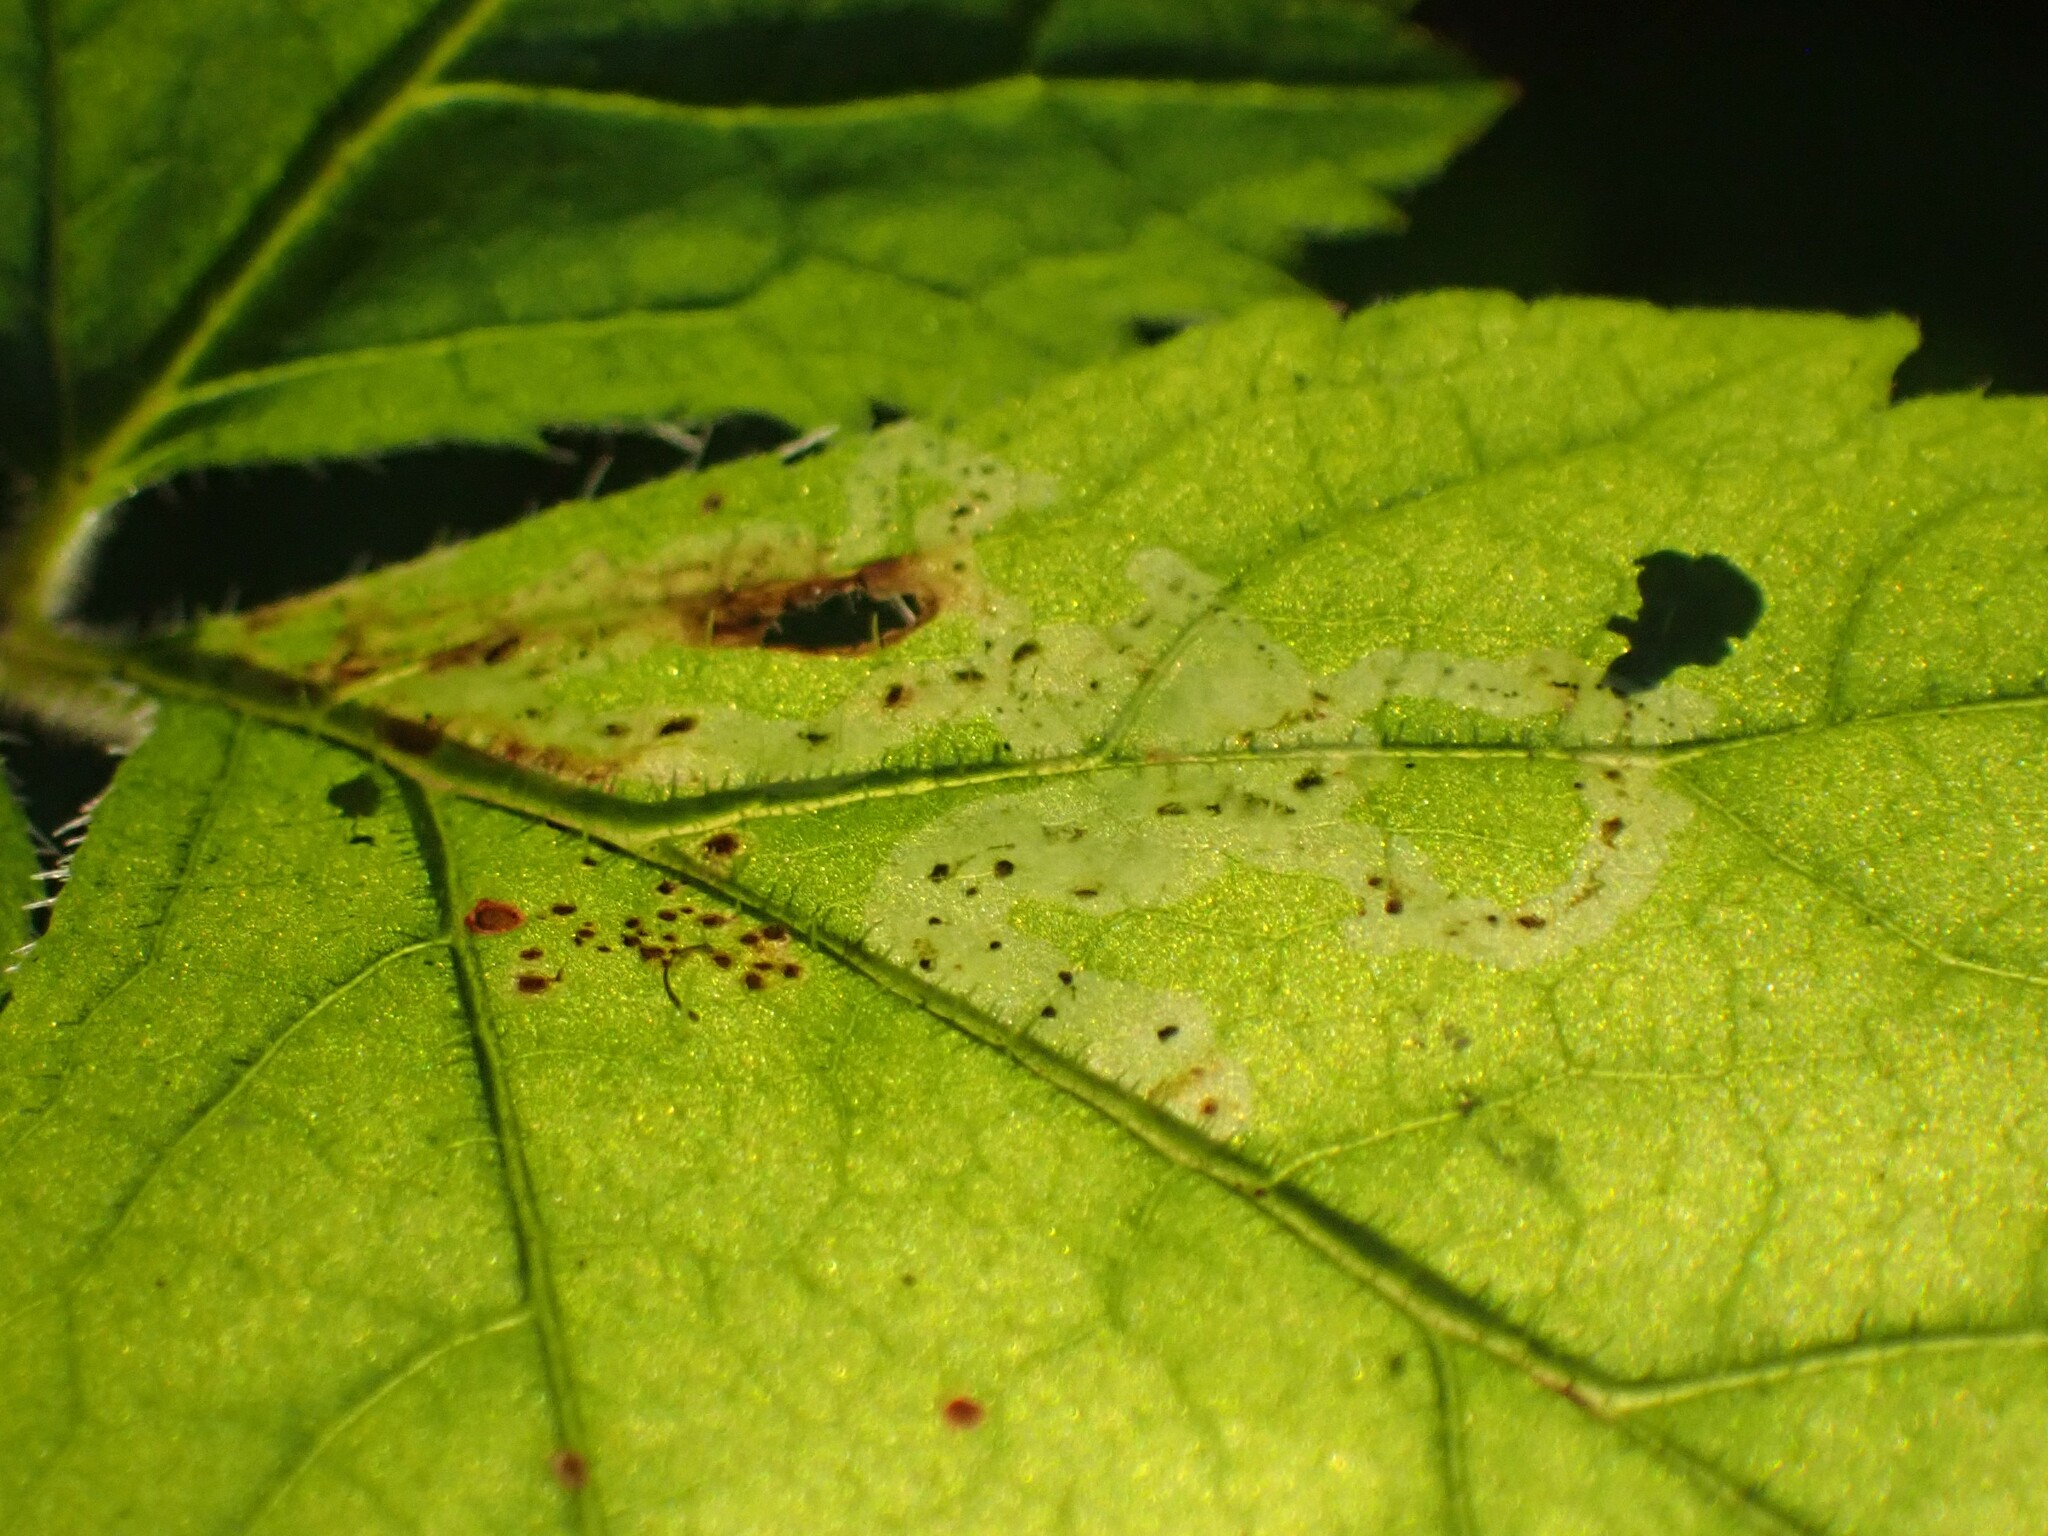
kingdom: Animalia
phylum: Arthropoda
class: Insecta
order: Diptera
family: Agromyzidae
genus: Phytomyza
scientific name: Phytomyza tiarellae
